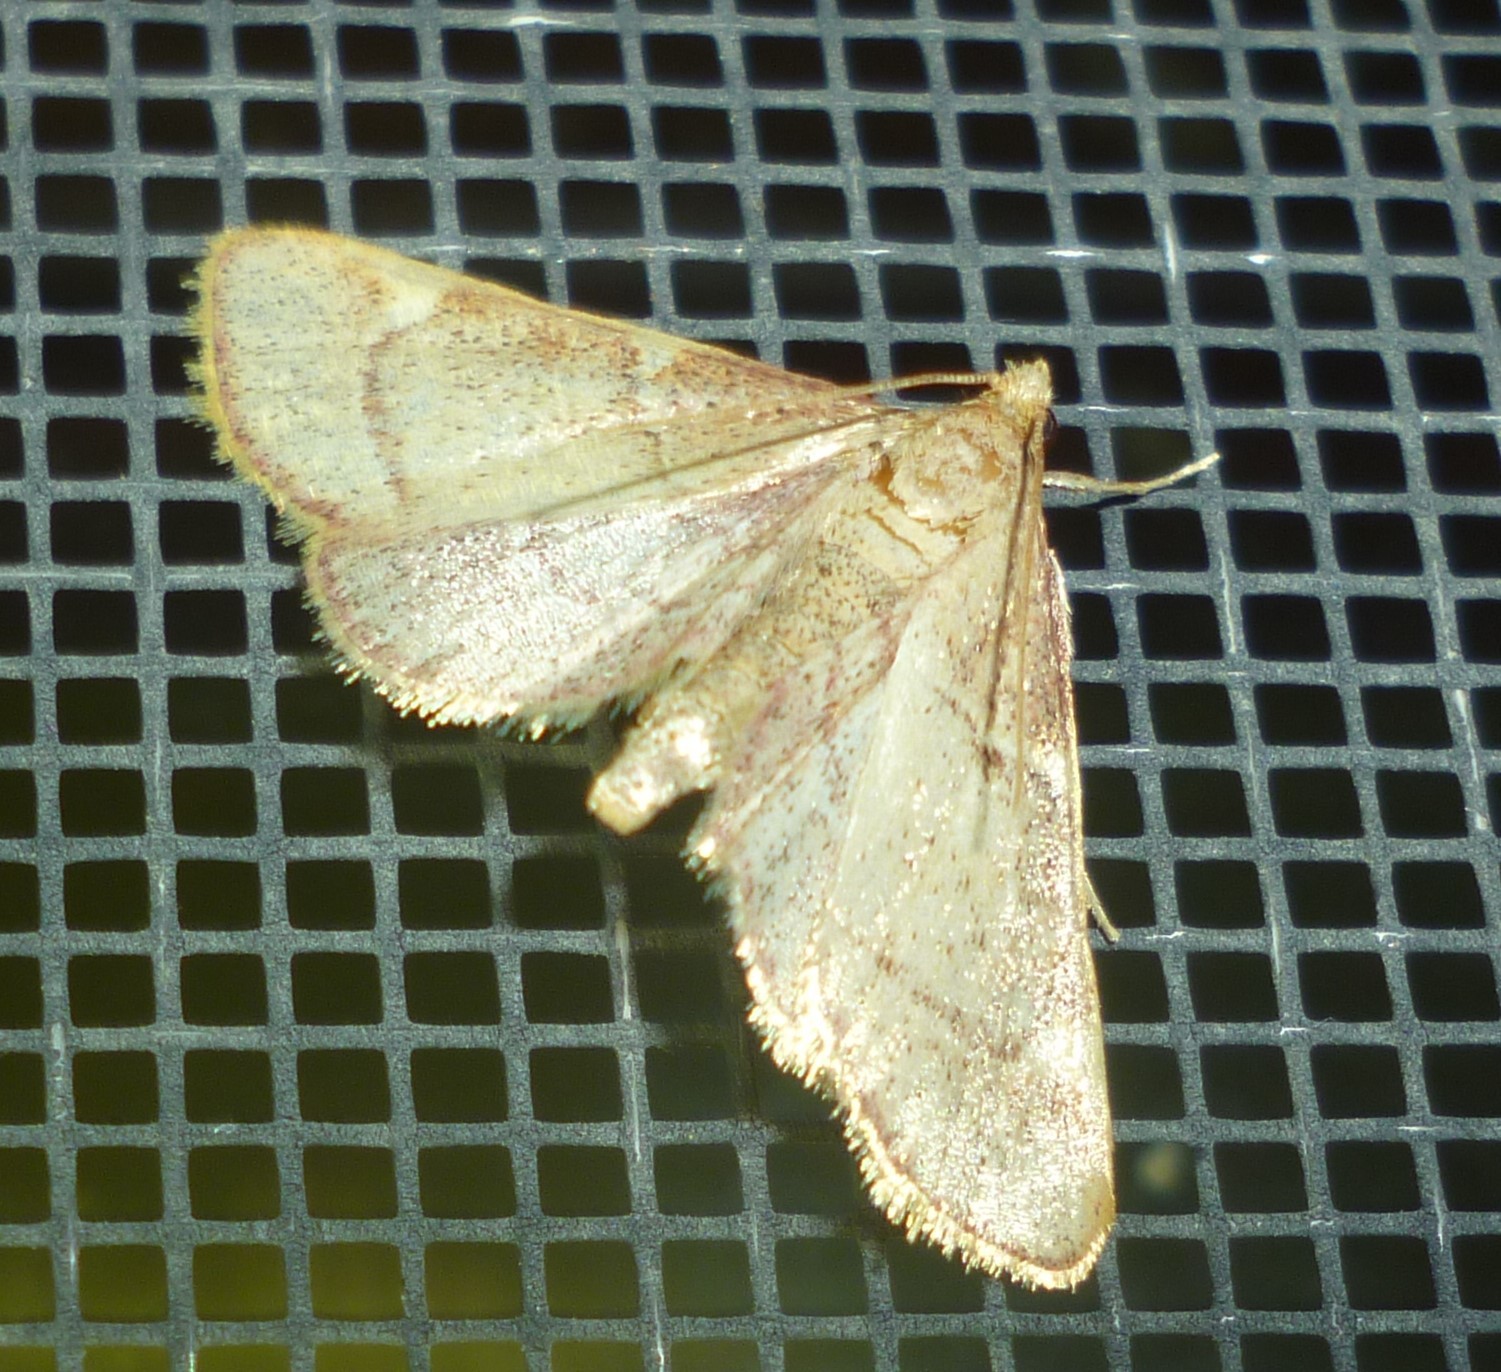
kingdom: Animalia
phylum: Arthropoda
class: Insecta
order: Lepidoptera
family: Pyralidae
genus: Hypsopygia
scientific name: Hypsopygia olinalis
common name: Yellow-fringed dolichomia moth
